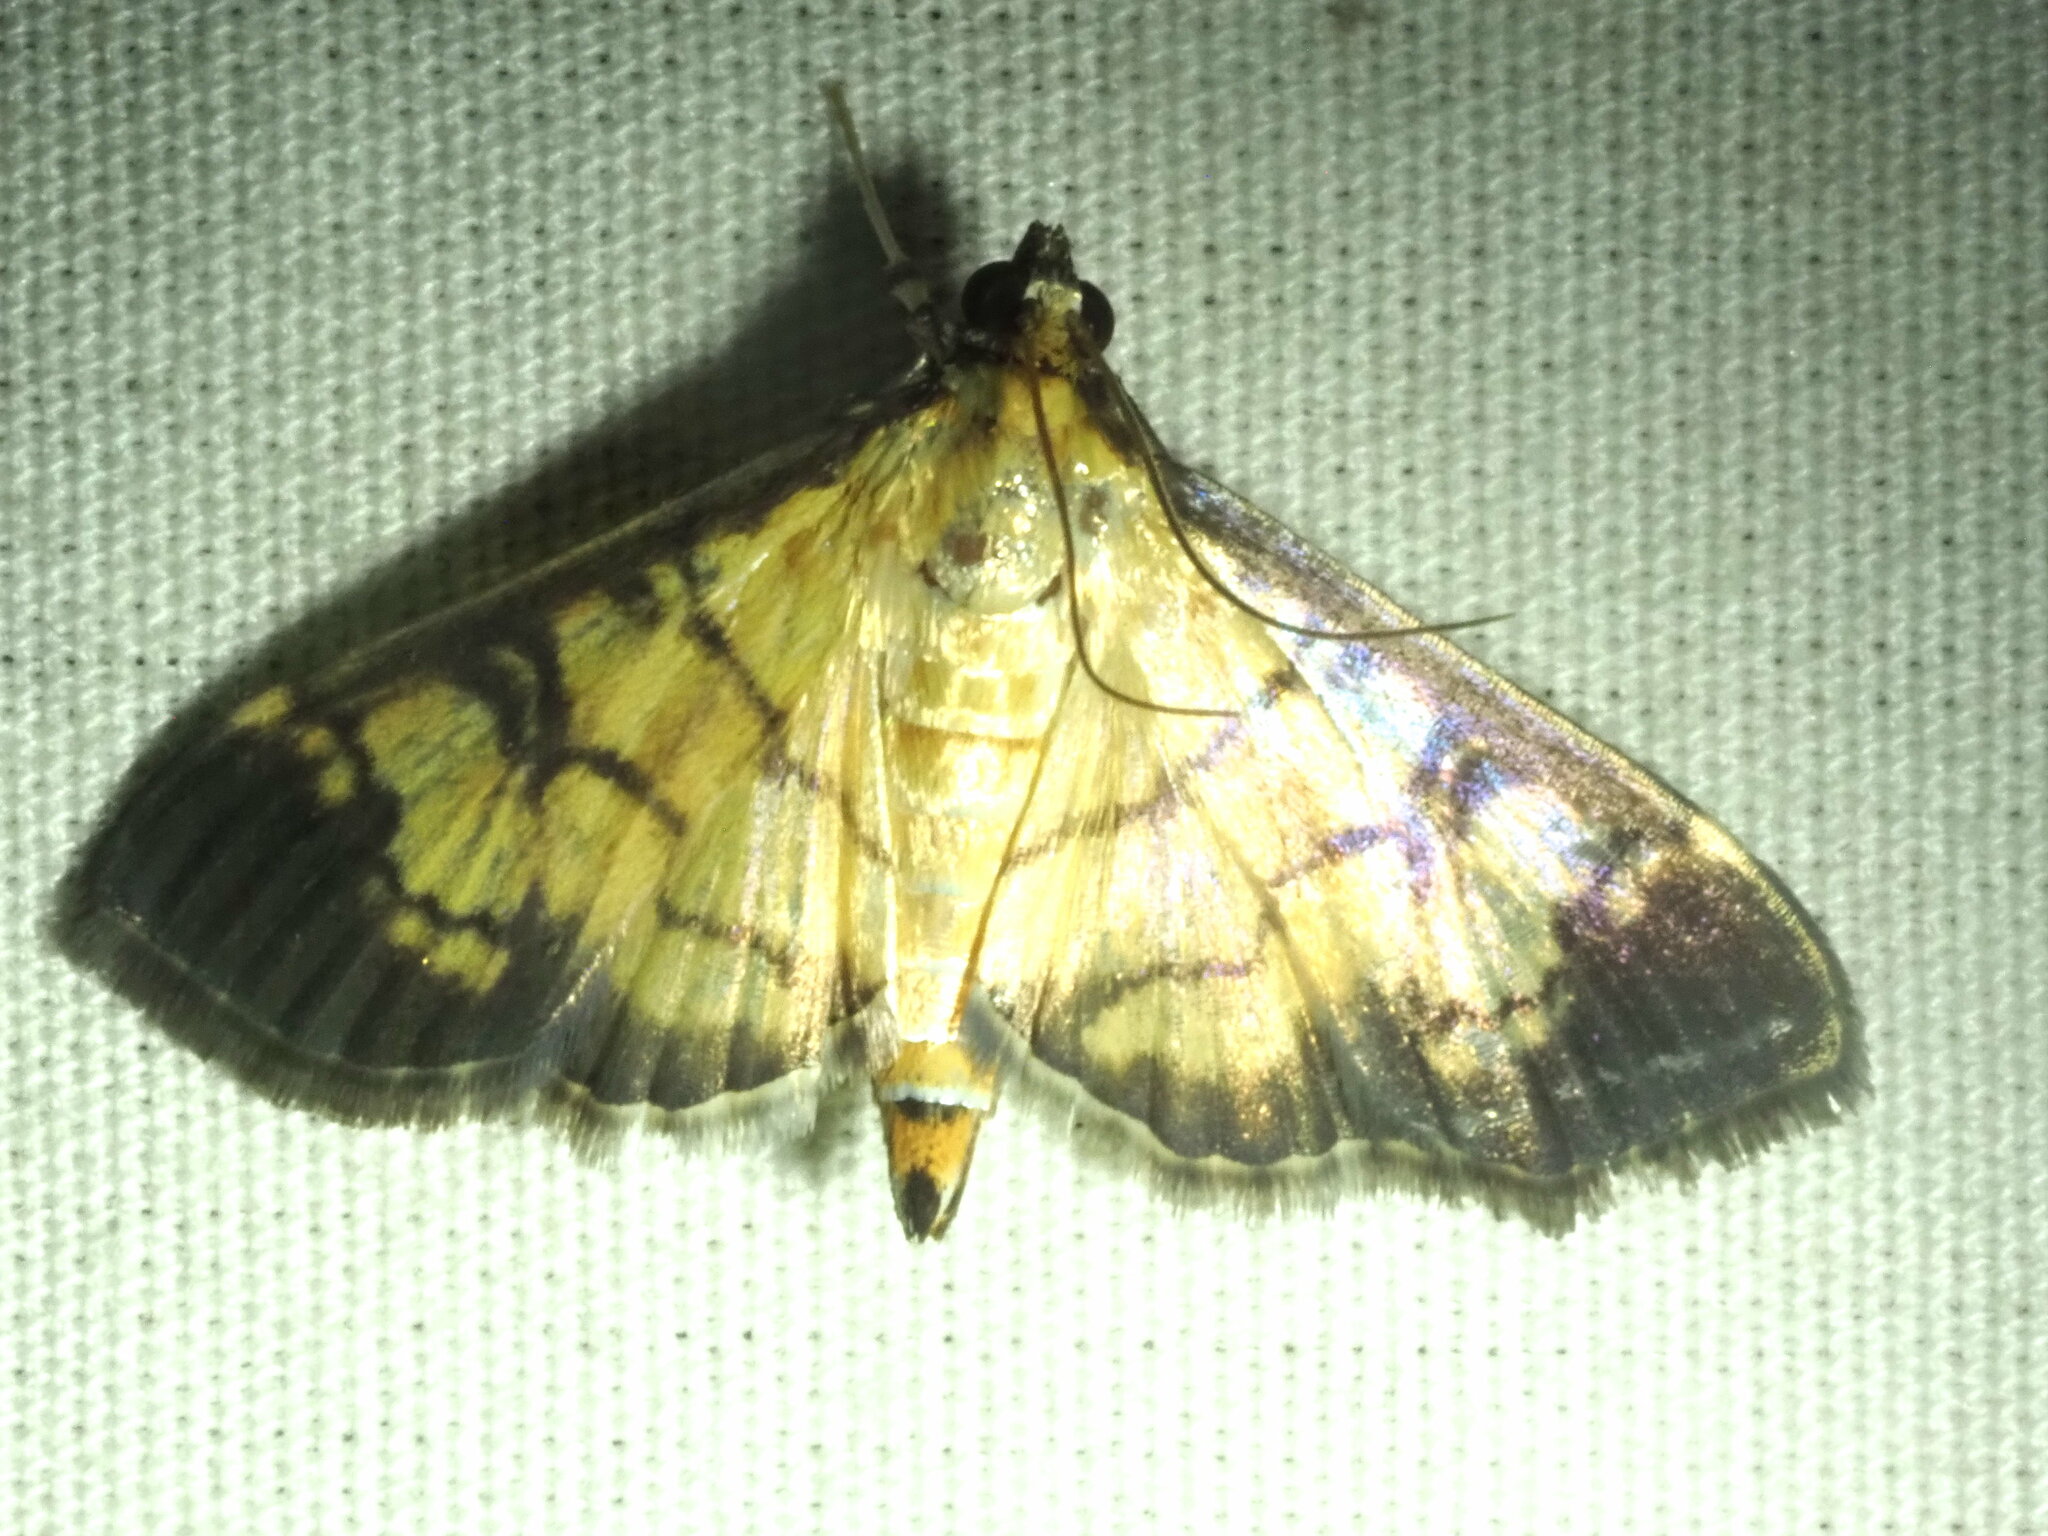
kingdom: Animalia
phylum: Arthropoda
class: Insecta
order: Lepidoptera
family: Crambidae
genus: Ategumia
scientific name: Ategumia matutinalis
